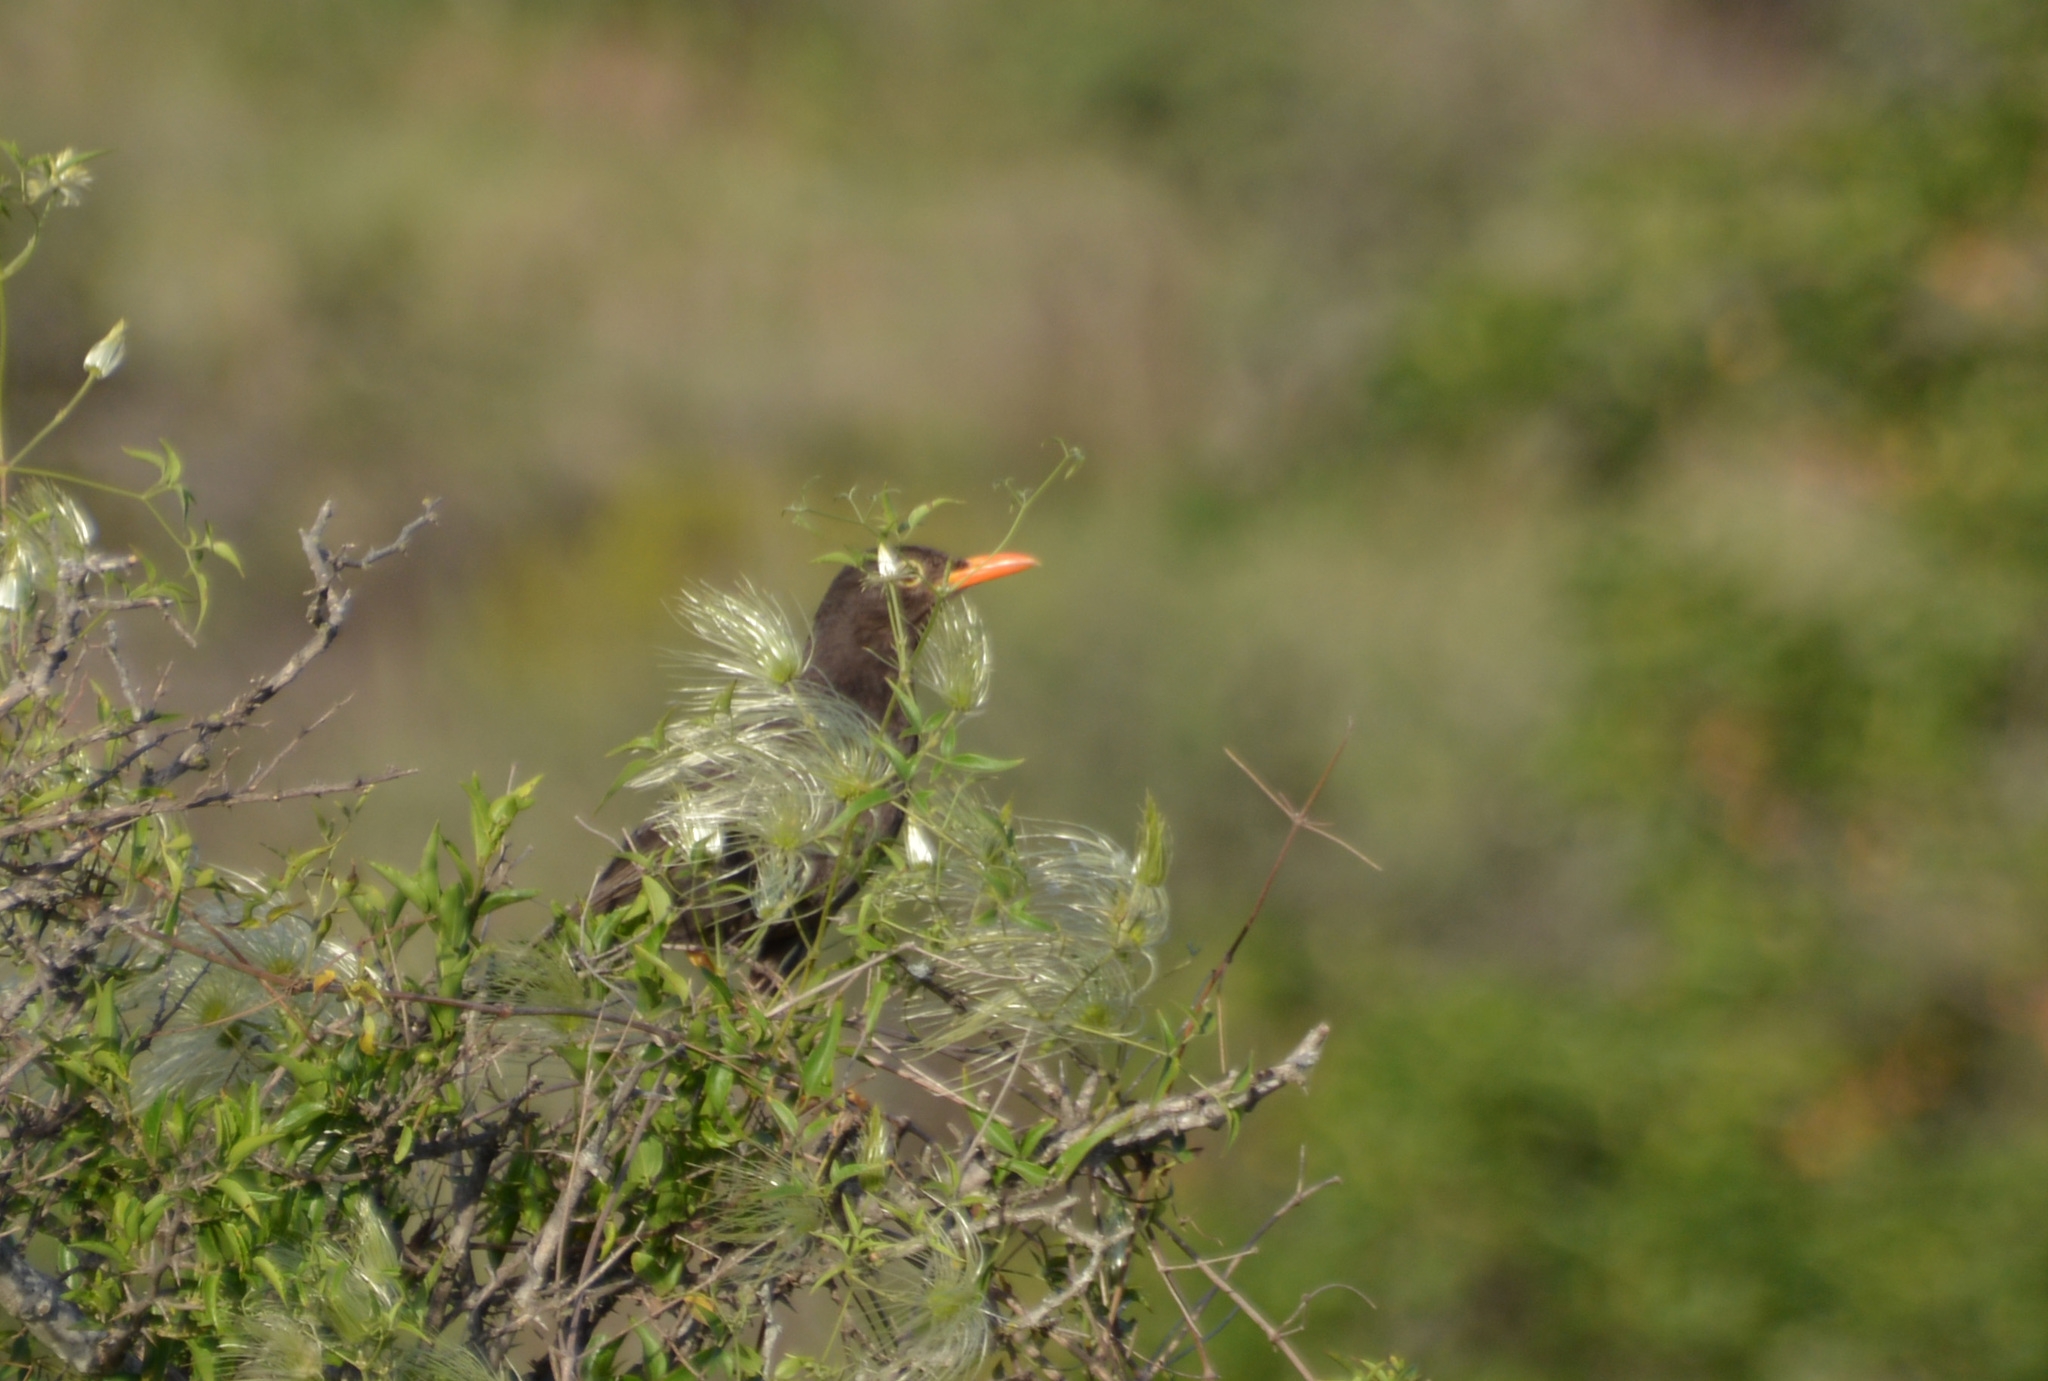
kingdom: Animalia
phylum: Chordata
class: Aves
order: Passeriformes
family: Turdidae
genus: Turdus
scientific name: Turdus chiguanco
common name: Chiguanco thrush
